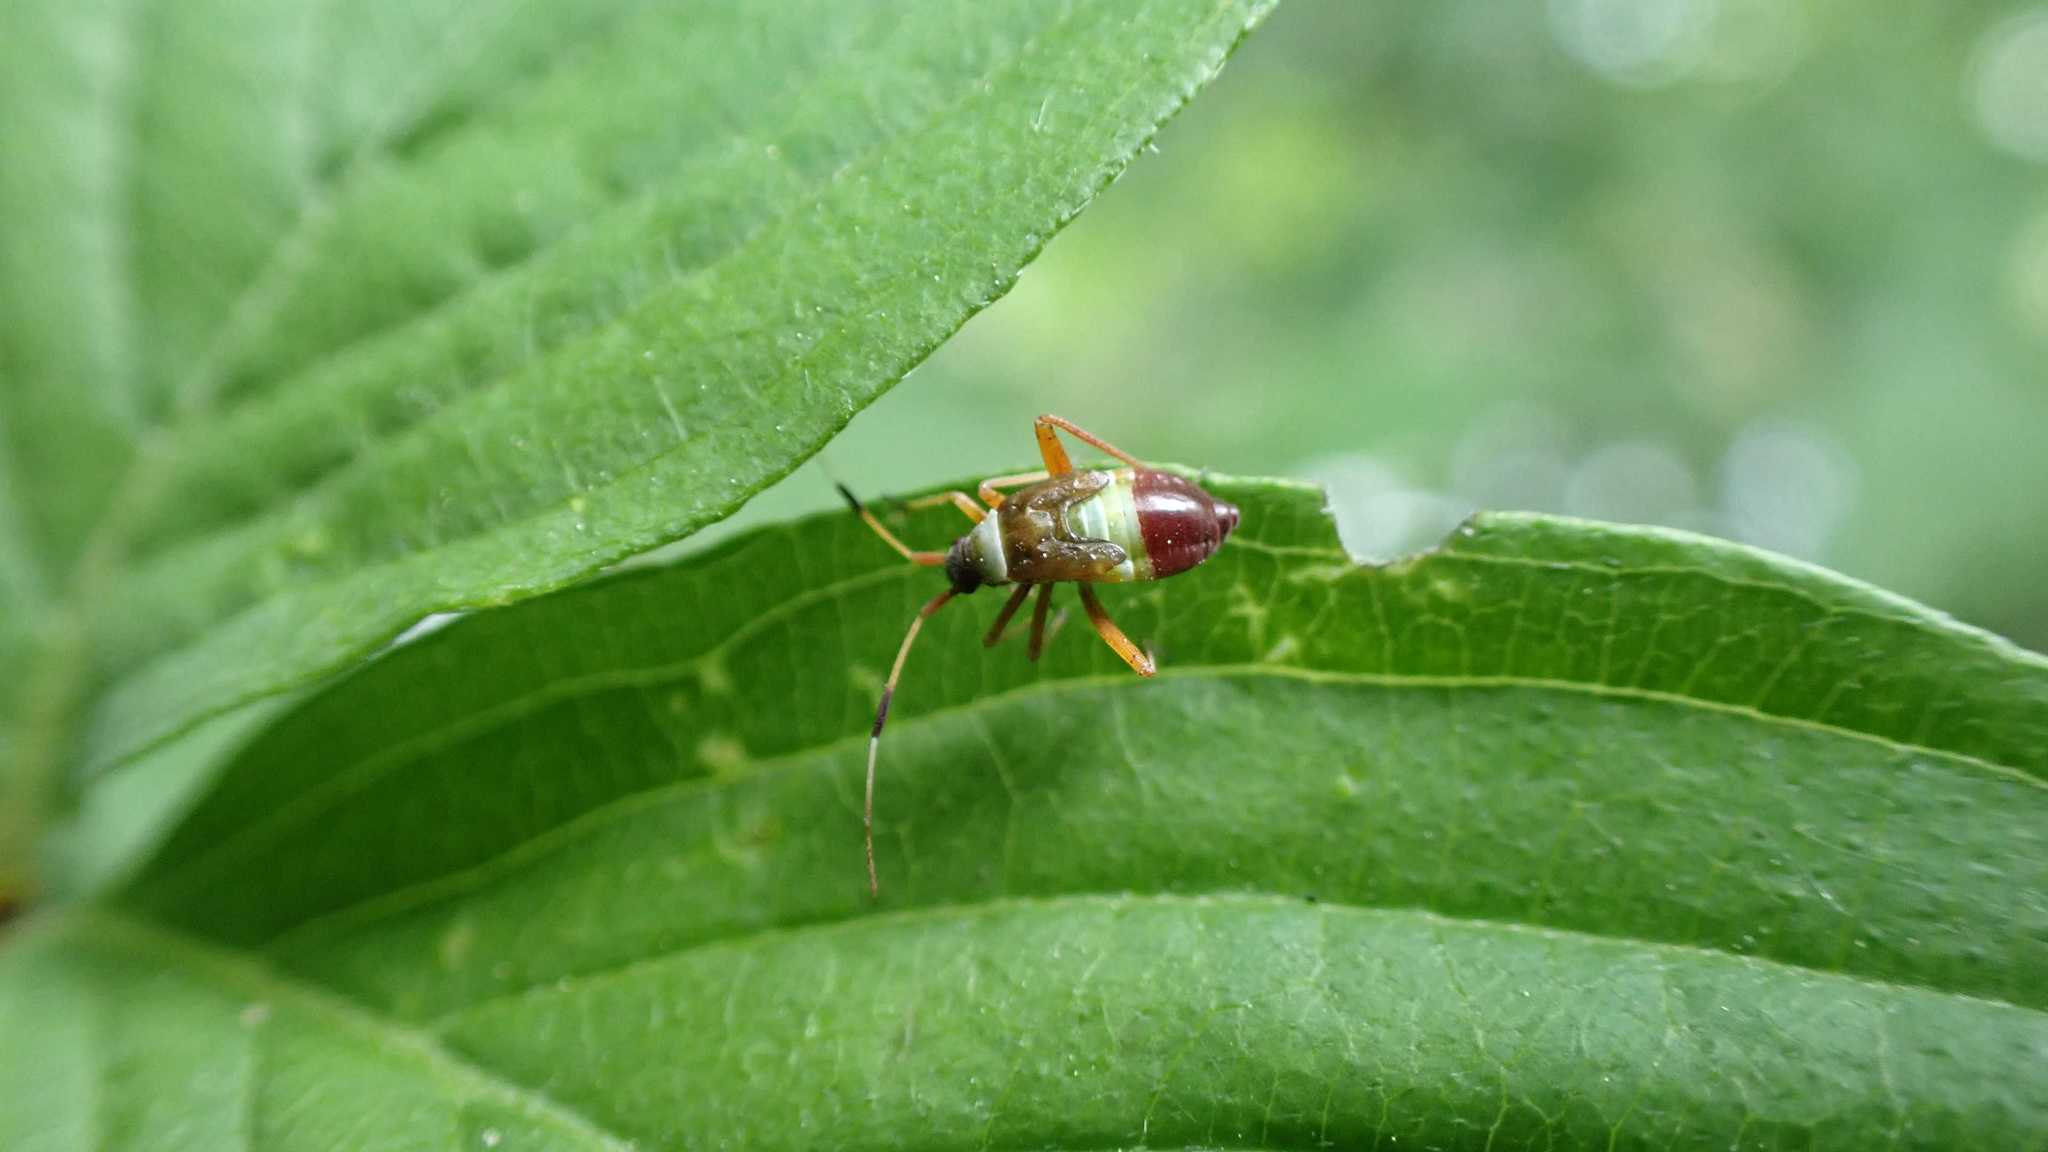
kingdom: Animalia
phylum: Arthropoda
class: Insecta
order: Hemiptera
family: Miridae
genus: Closterotomus
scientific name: Closterotomus biclavatus
